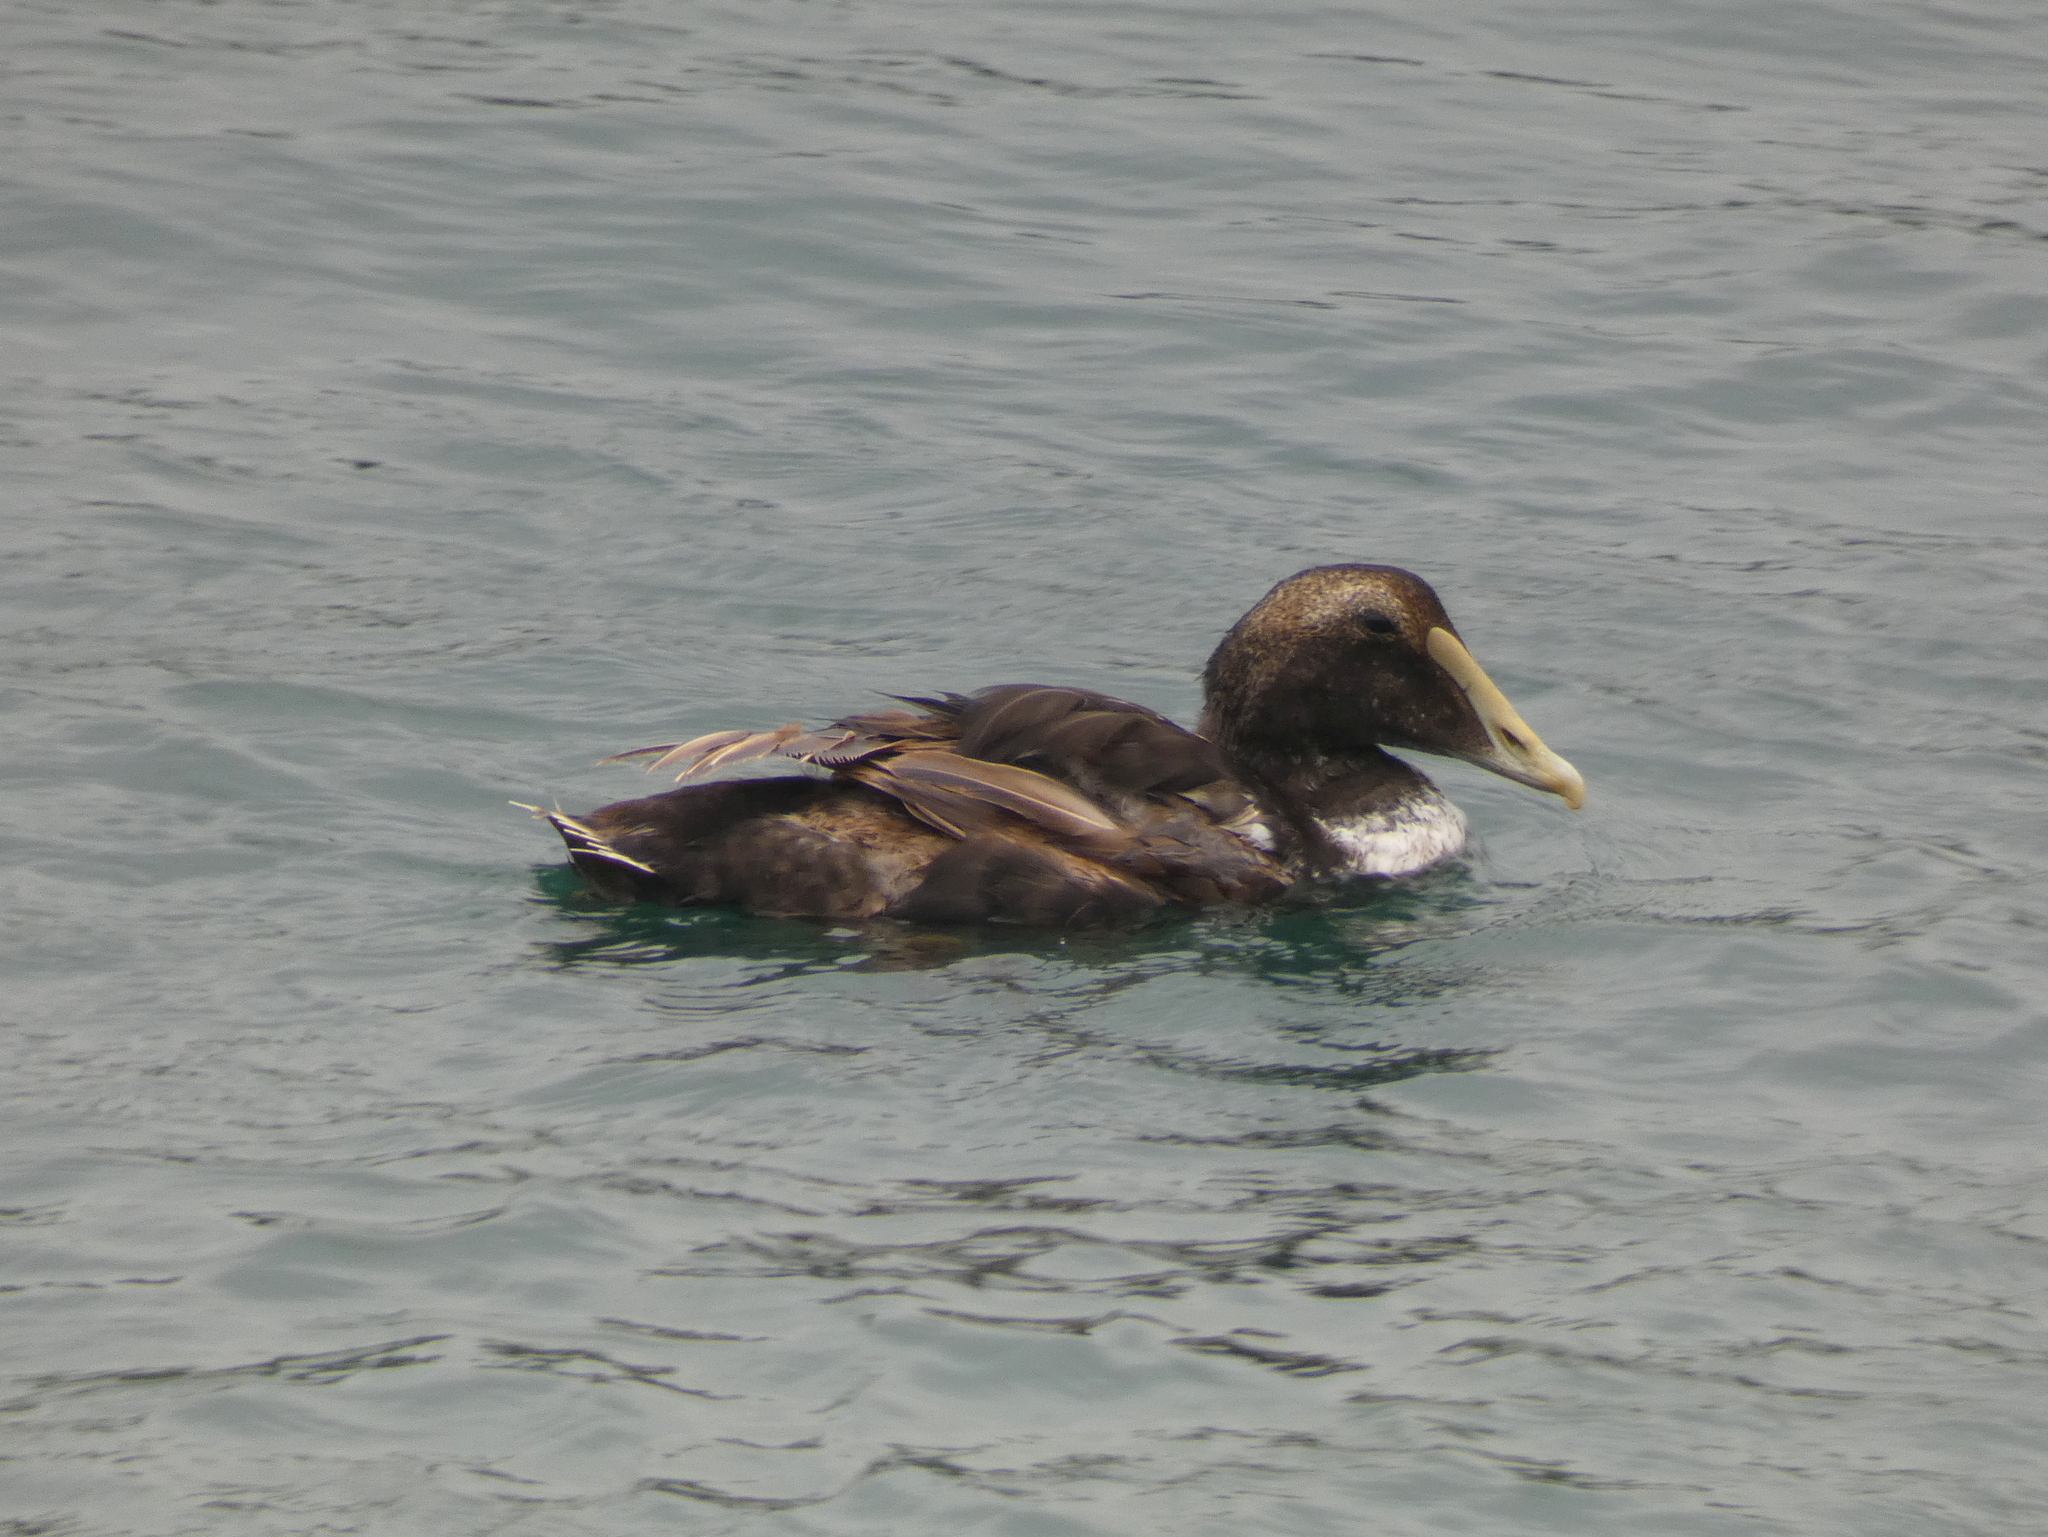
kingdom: Animalia
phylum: Chordata
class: Aves
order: Anseriformes
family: Anatidae
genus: Somateria
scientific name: Somateria mollissima
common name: Common eider
